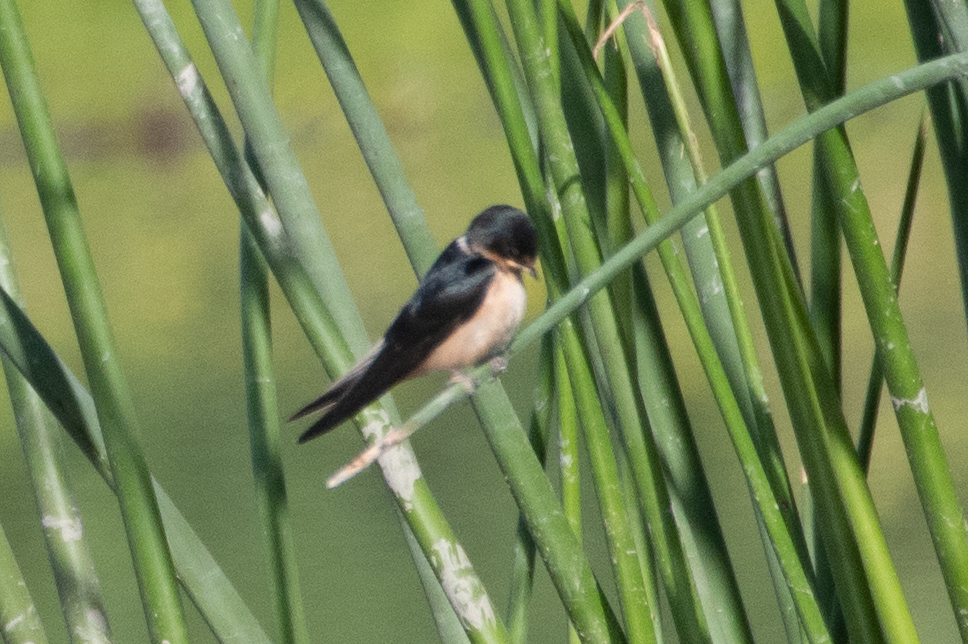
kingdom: Animalia
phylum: Chordata
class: Aves
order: Passeriformes
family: Hirundinidae
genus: Hirundo
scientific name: Hirundo rustica
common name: Barn swallow
